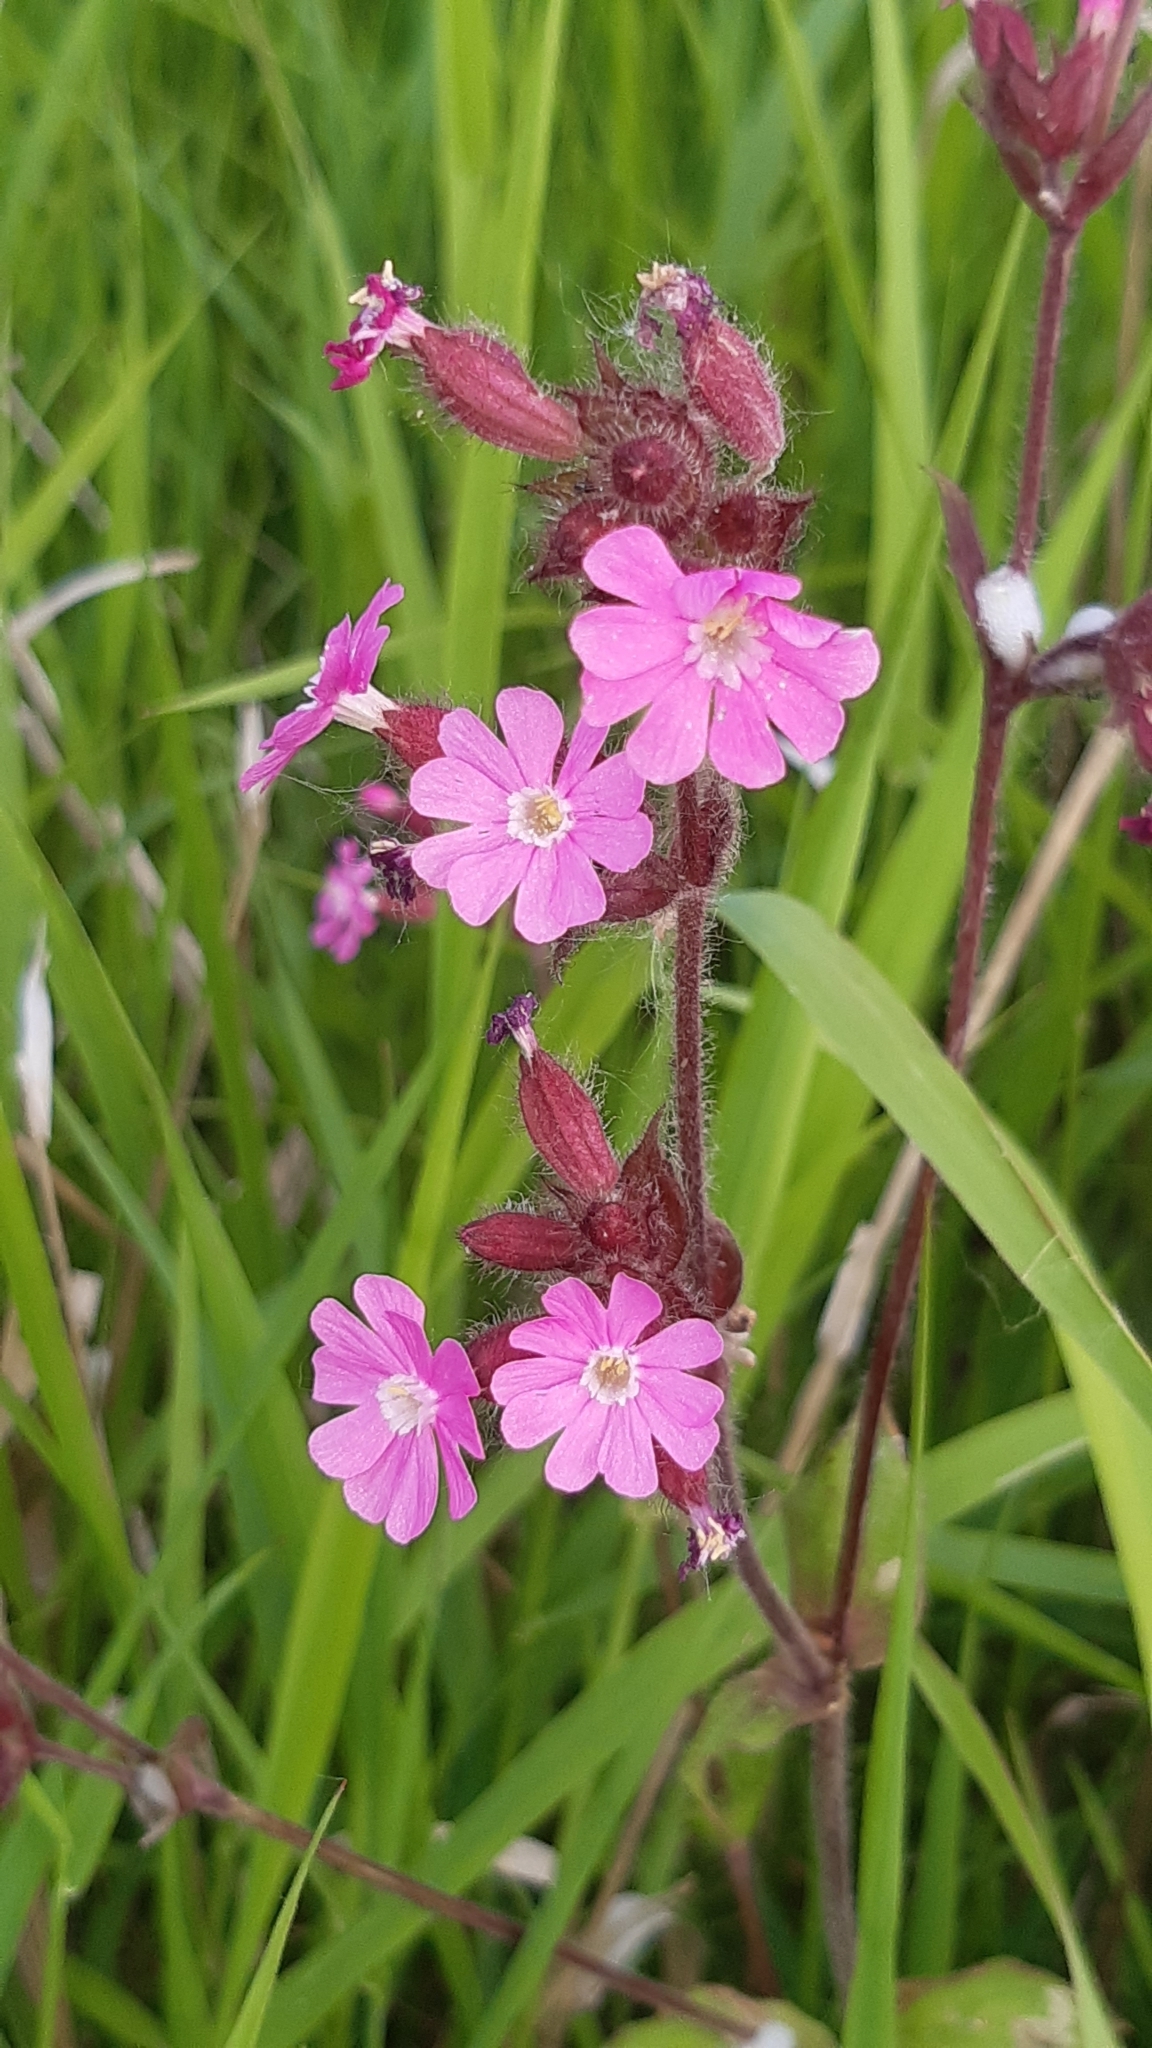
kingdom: Plantae
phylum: Tracheophyta
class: Magnoliopsida
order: Caryophyllales
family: Caryophyllaceae
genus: Silene
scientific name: Silene dioica
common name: Red campion
